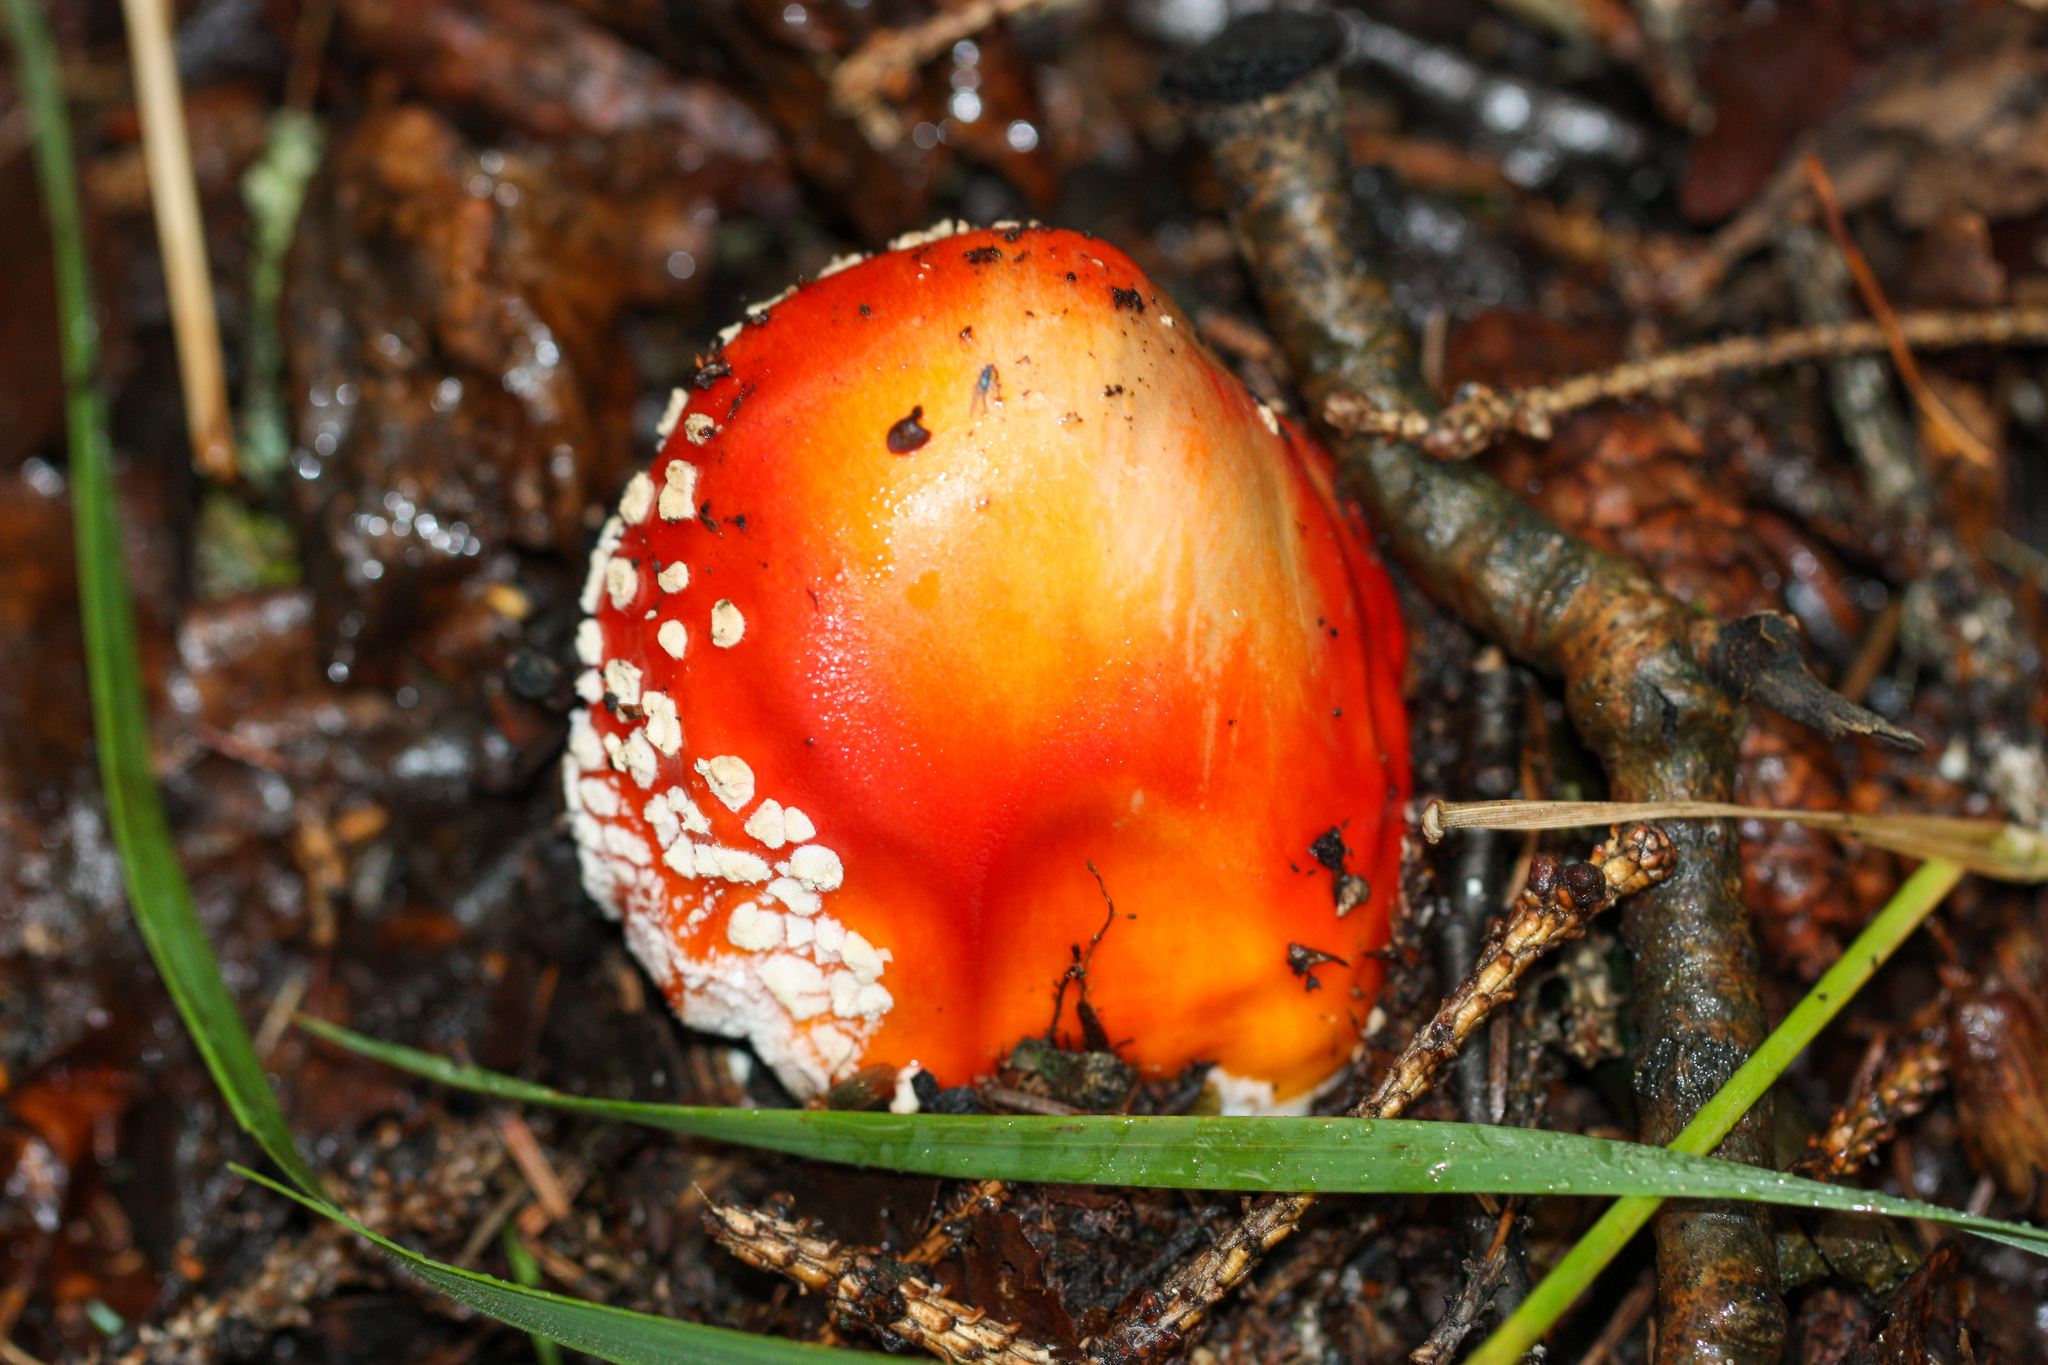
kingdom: Fungi
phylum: Basidiomycota
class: Agaricomycetes
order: Agaricales
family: Amanitaceae
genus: Amanita
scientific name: Amanita muscaria
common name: Fly agaric
